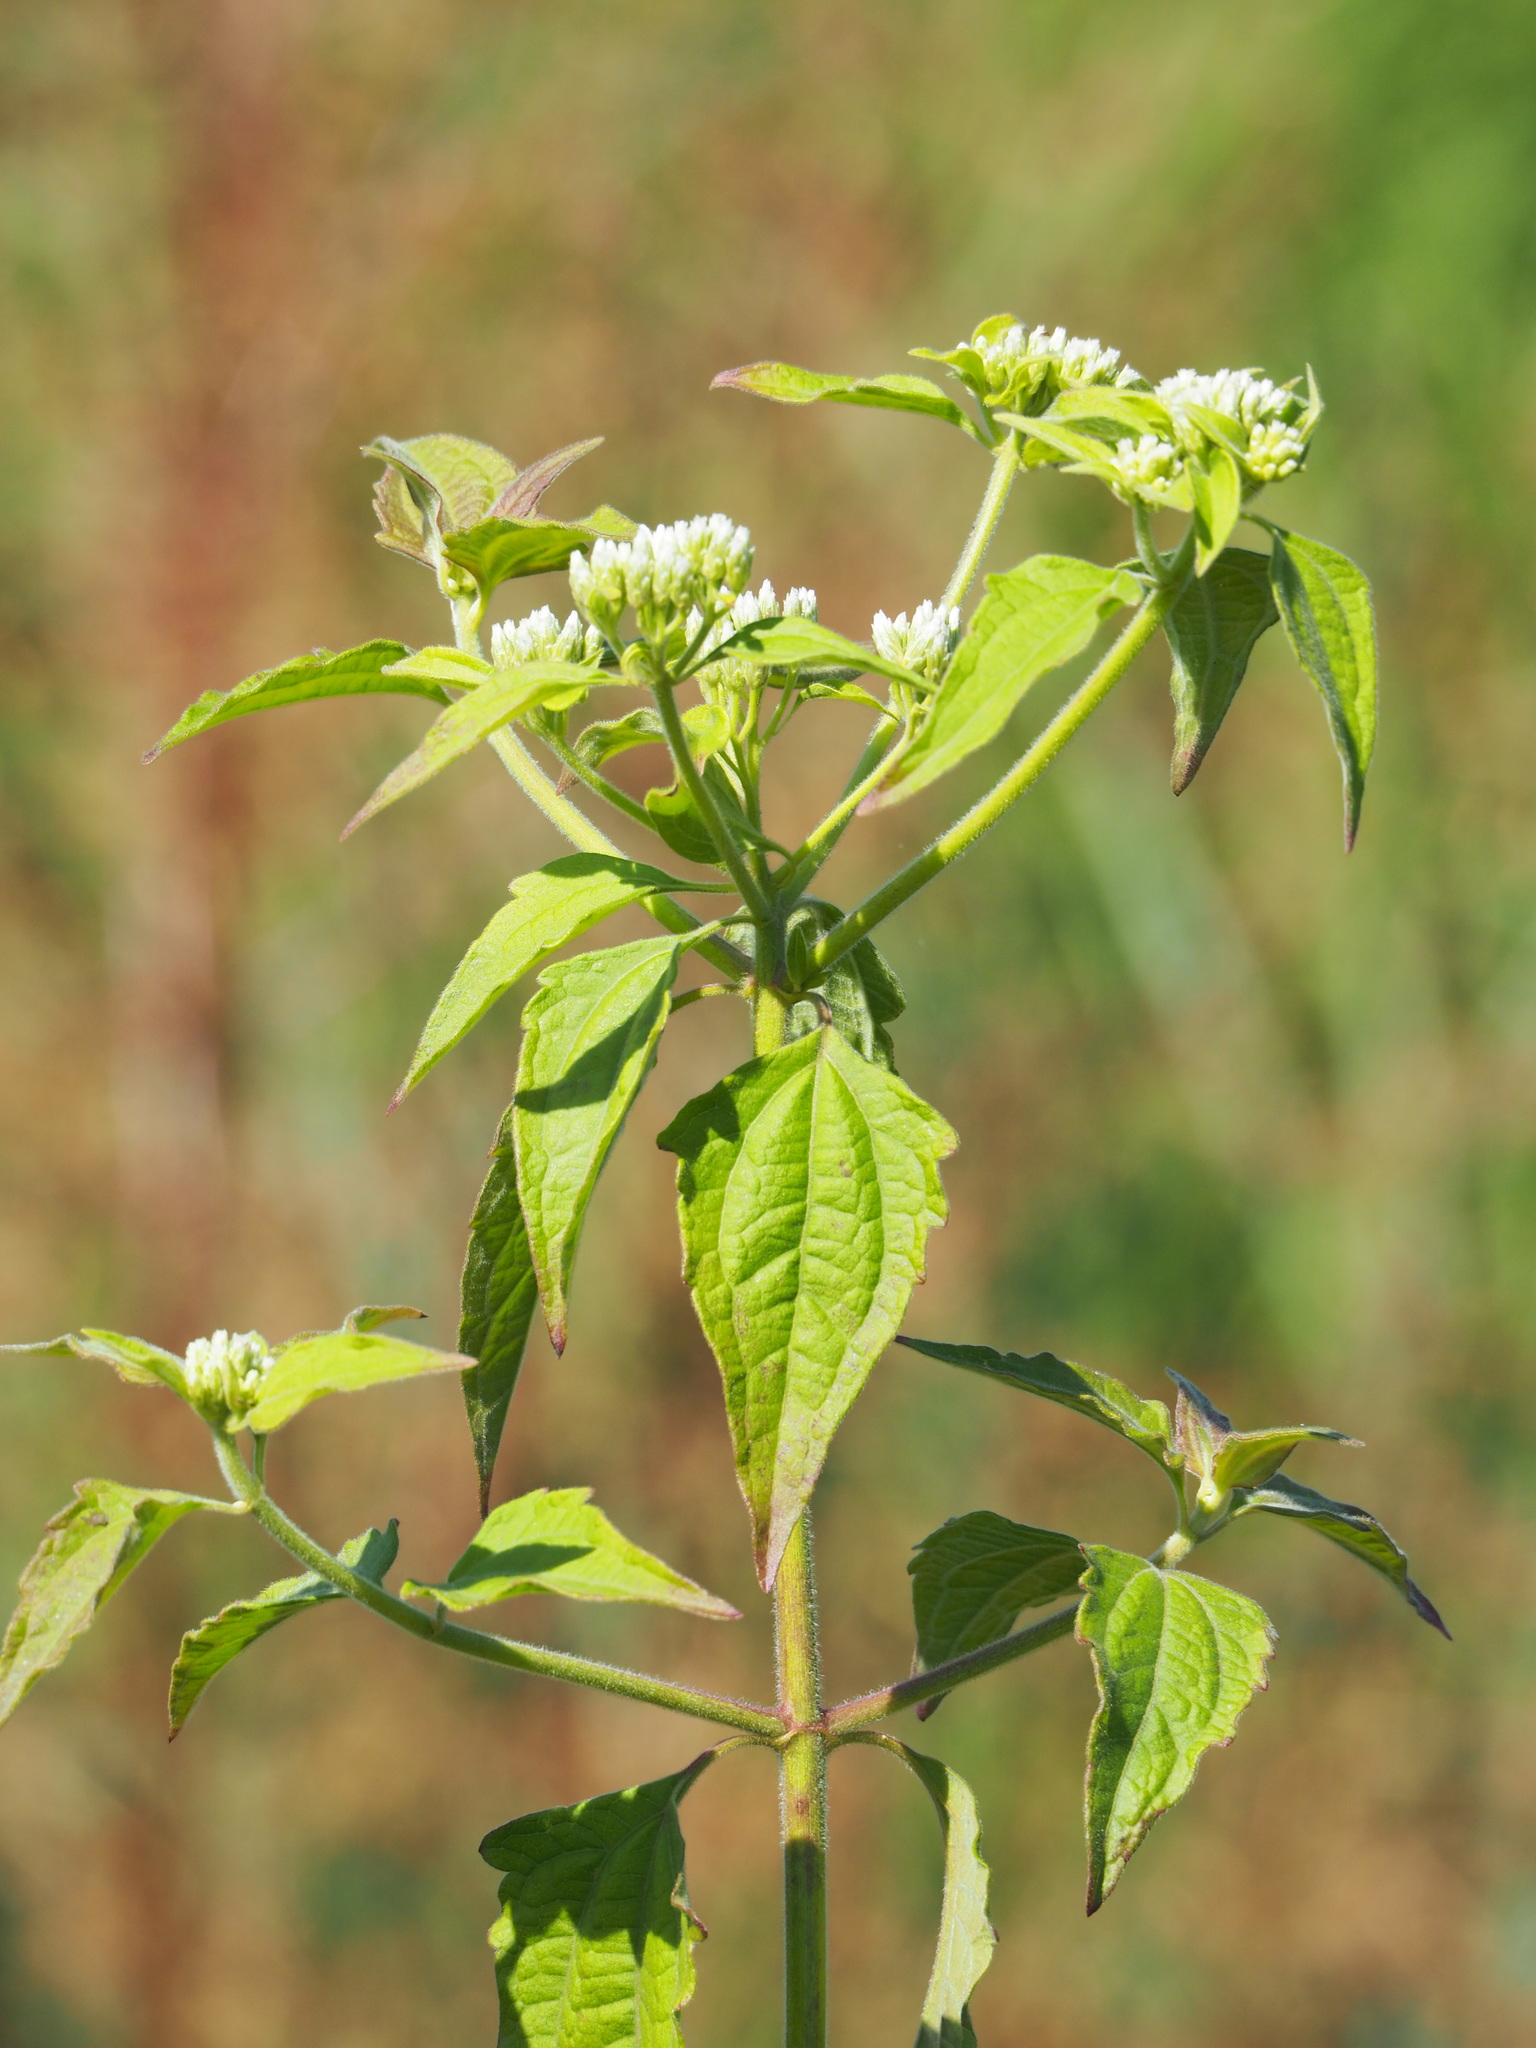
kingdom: Plantae
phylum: Tracheophyta
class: Magnoliopsida
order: Asterales
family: Asteraceae
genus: Chromolaena
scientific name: Chromolaena odorata
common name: Siamweed
